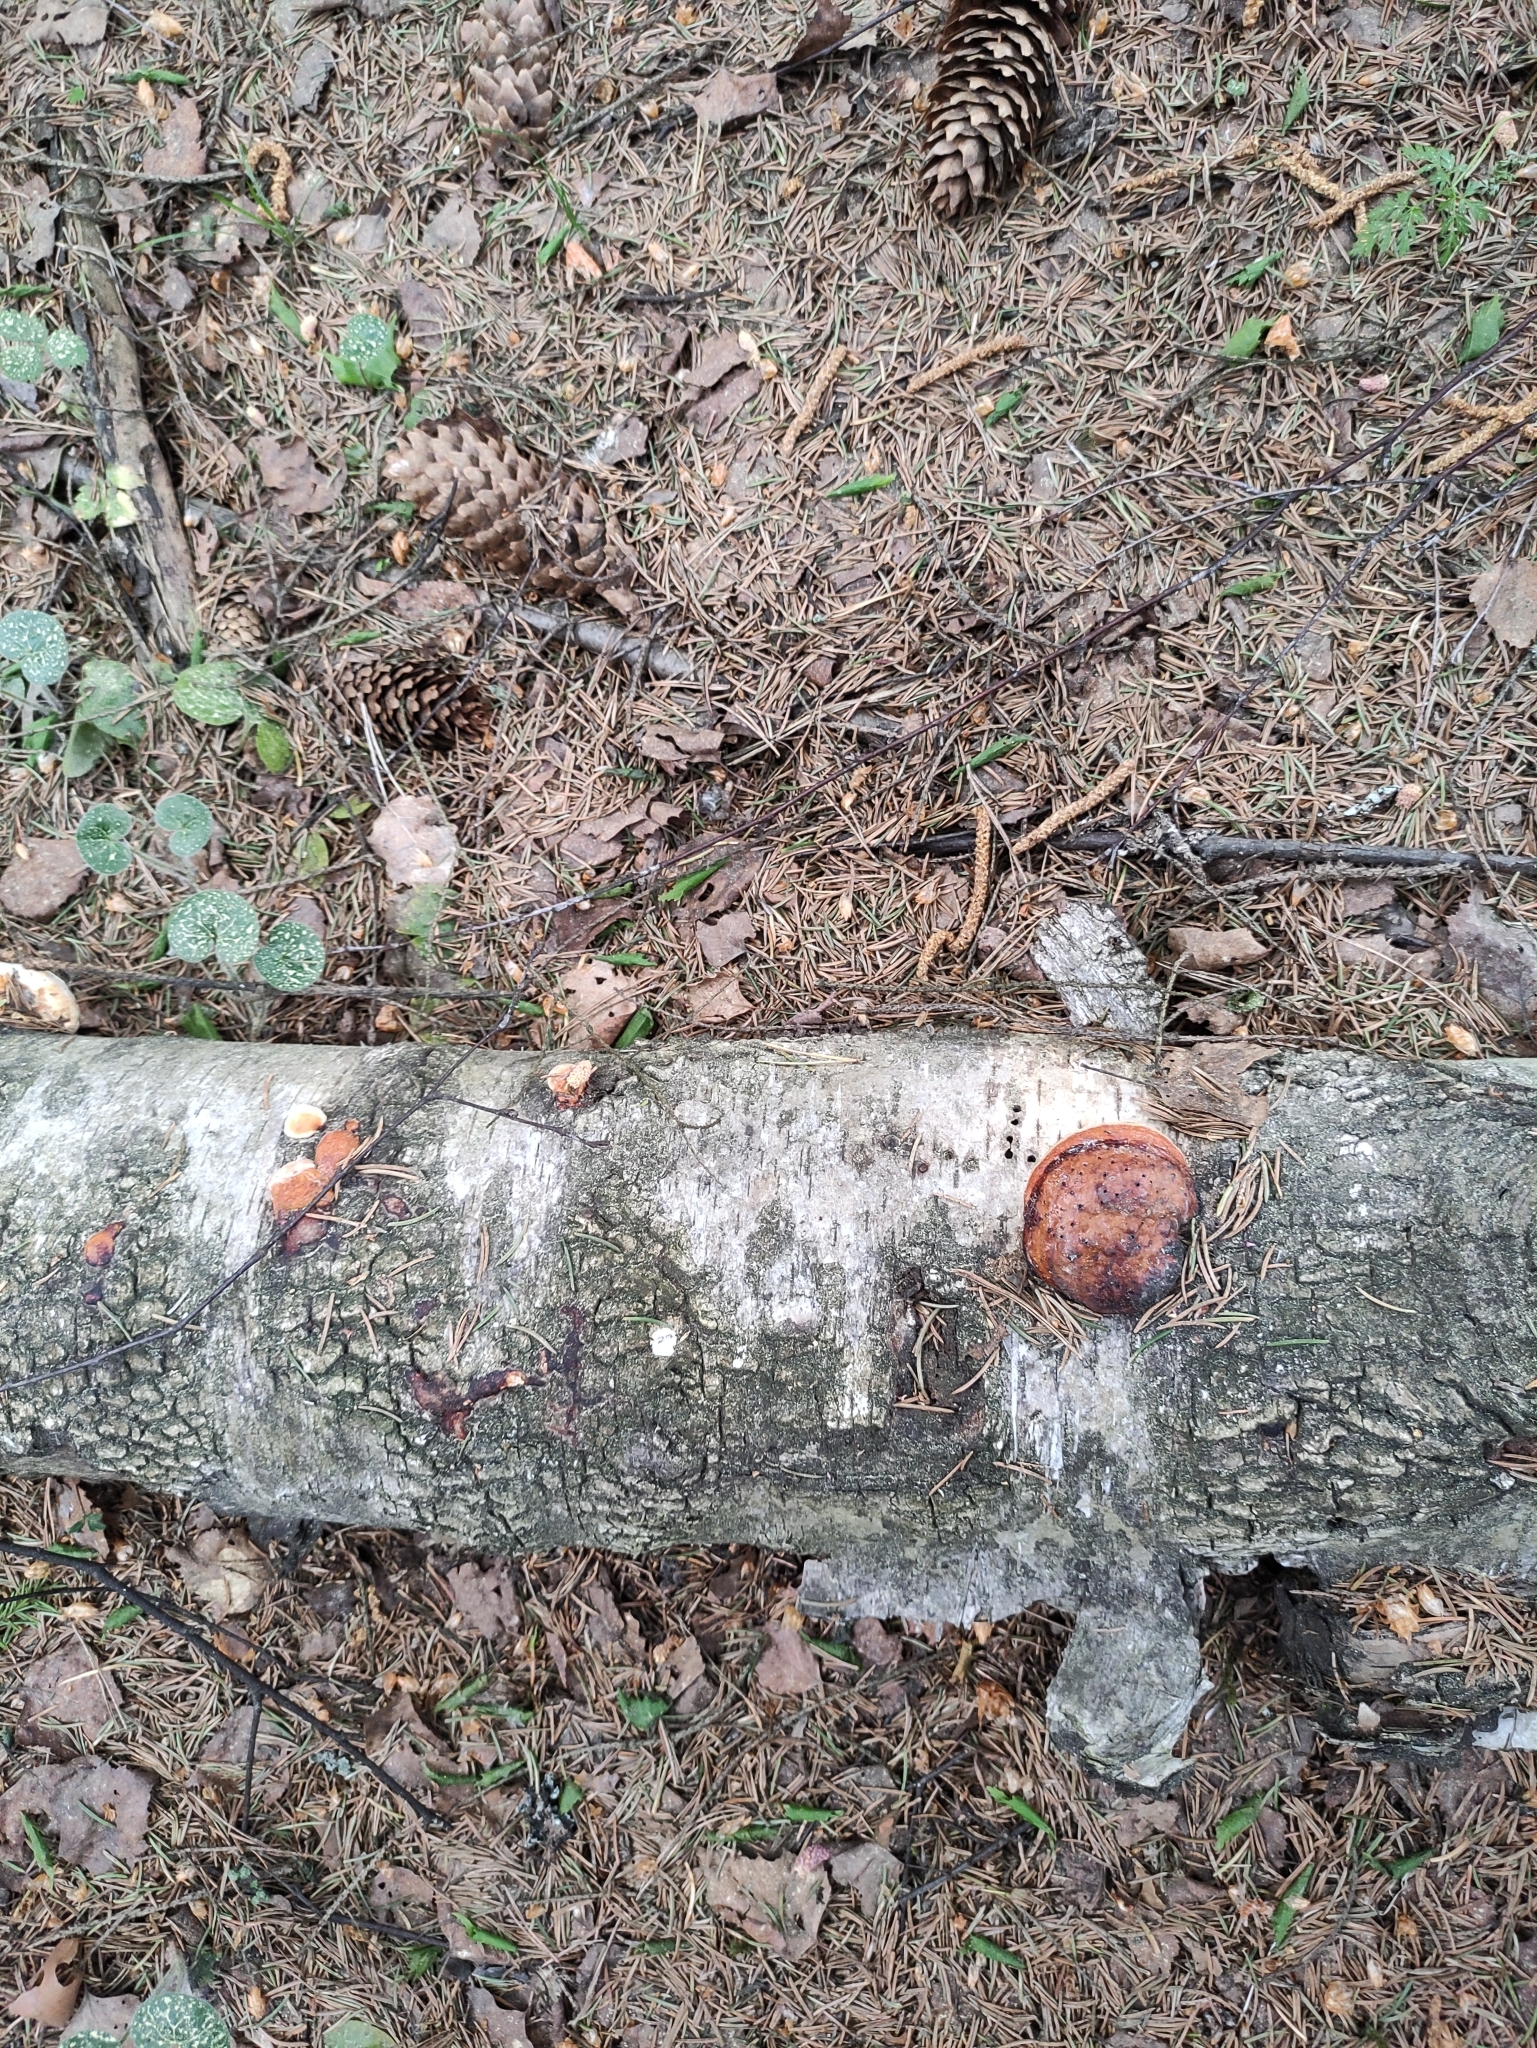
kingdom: Fungi
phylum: Basidiomycota
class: Agaricomycetes
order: Polyporales
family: Fomitopsidaceae
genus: Fomitopsis
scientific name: Fomitopsis pinicola
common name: Red-belted bracket
